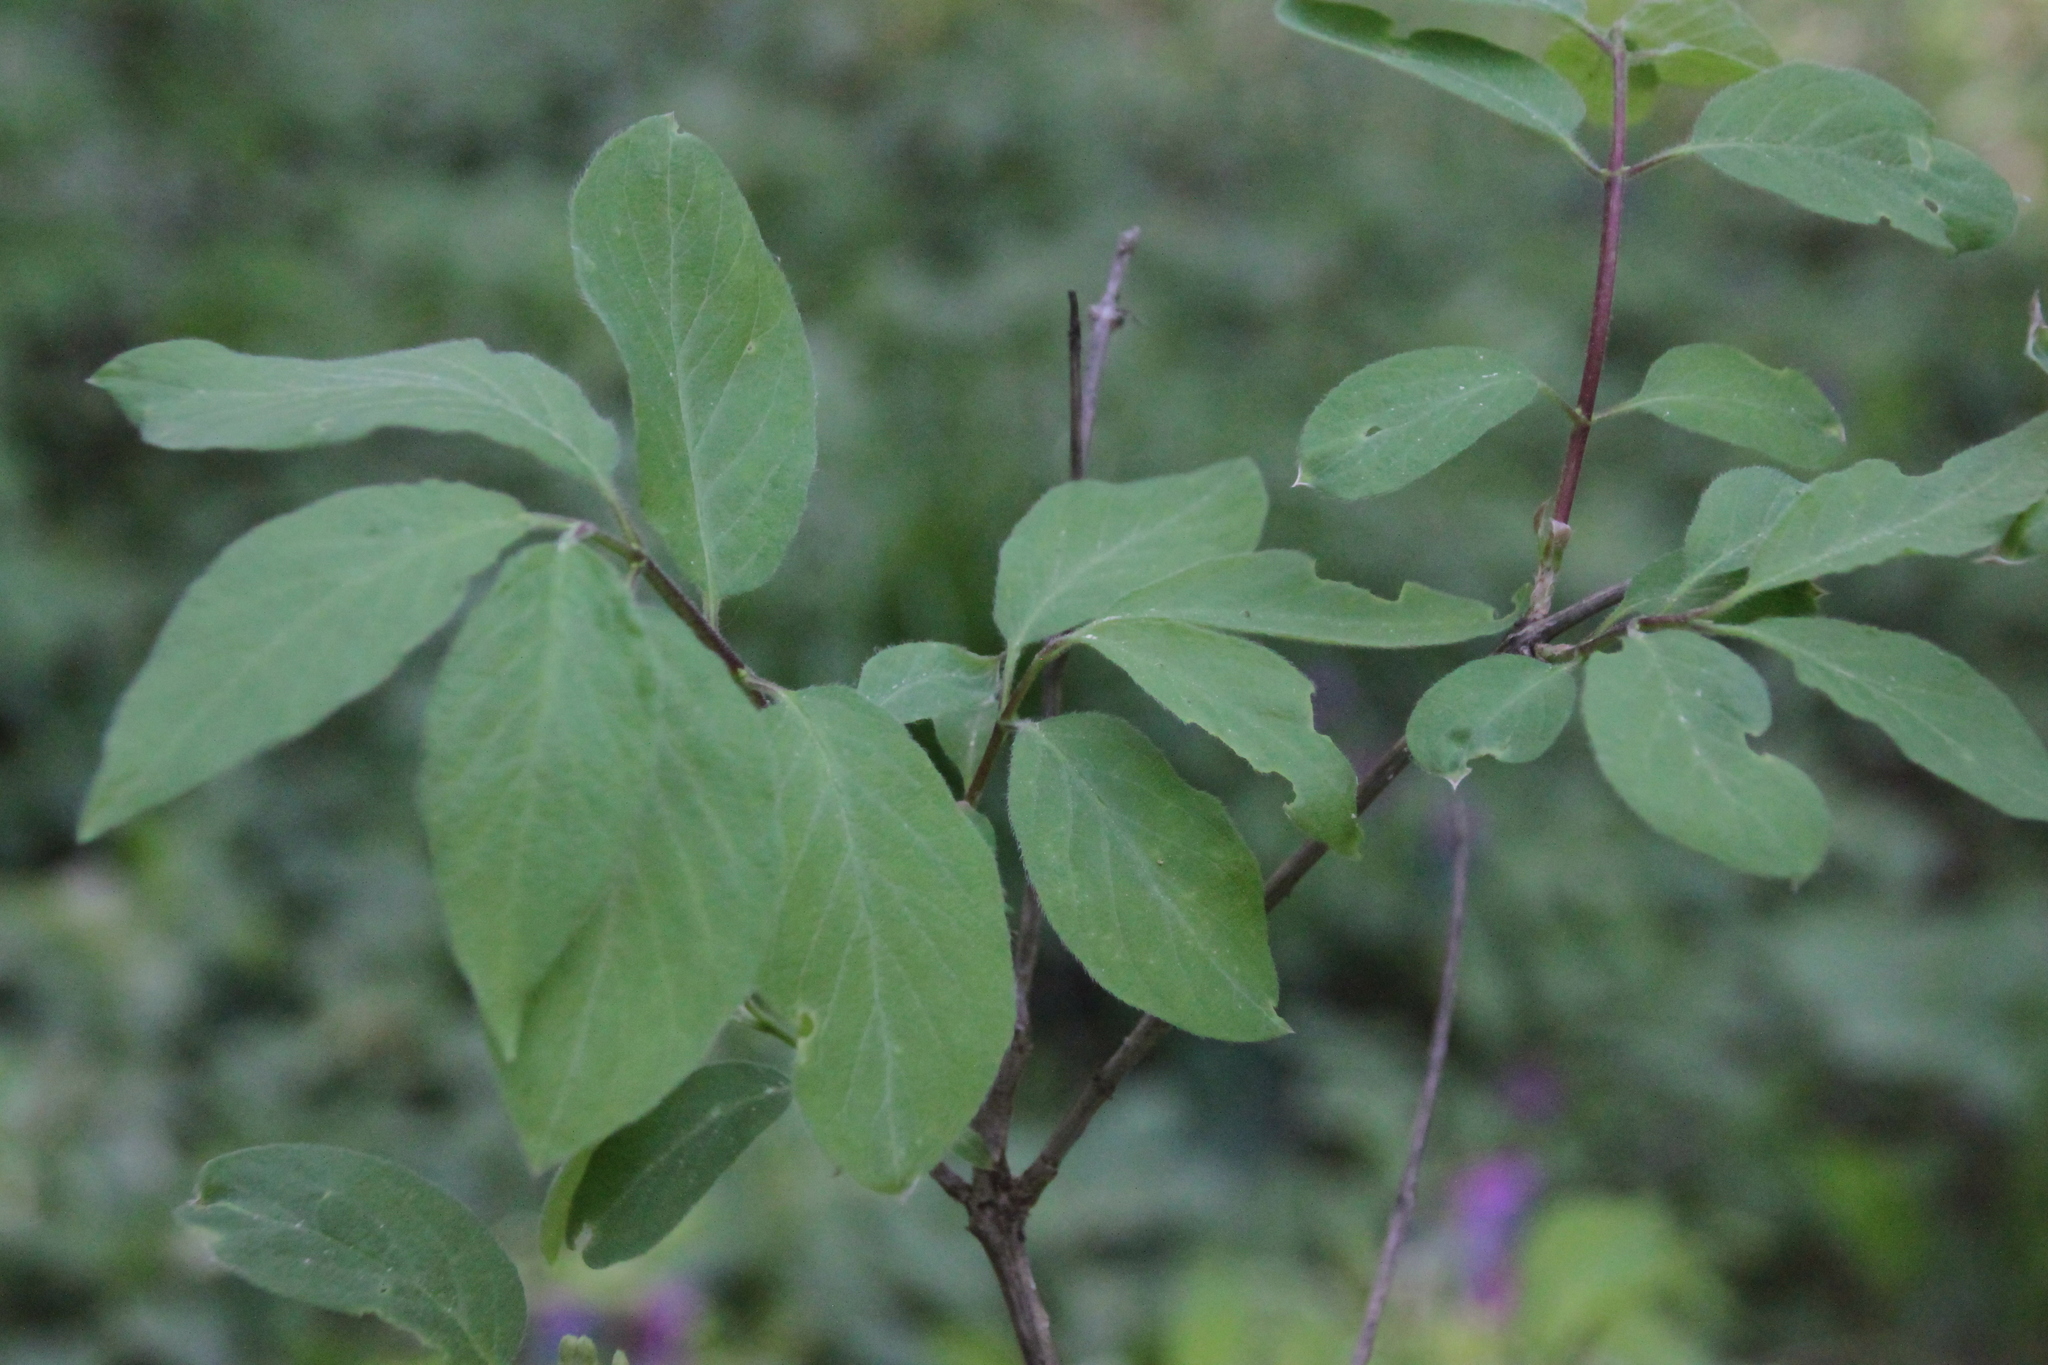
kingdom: Plantae
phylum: Tracheophyta
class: Magnoliopsida
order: Dipsacales
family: Caprifoliaceae
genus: Lonicera
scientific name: Lonicera xylosteum
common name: Fly honeysuckle
